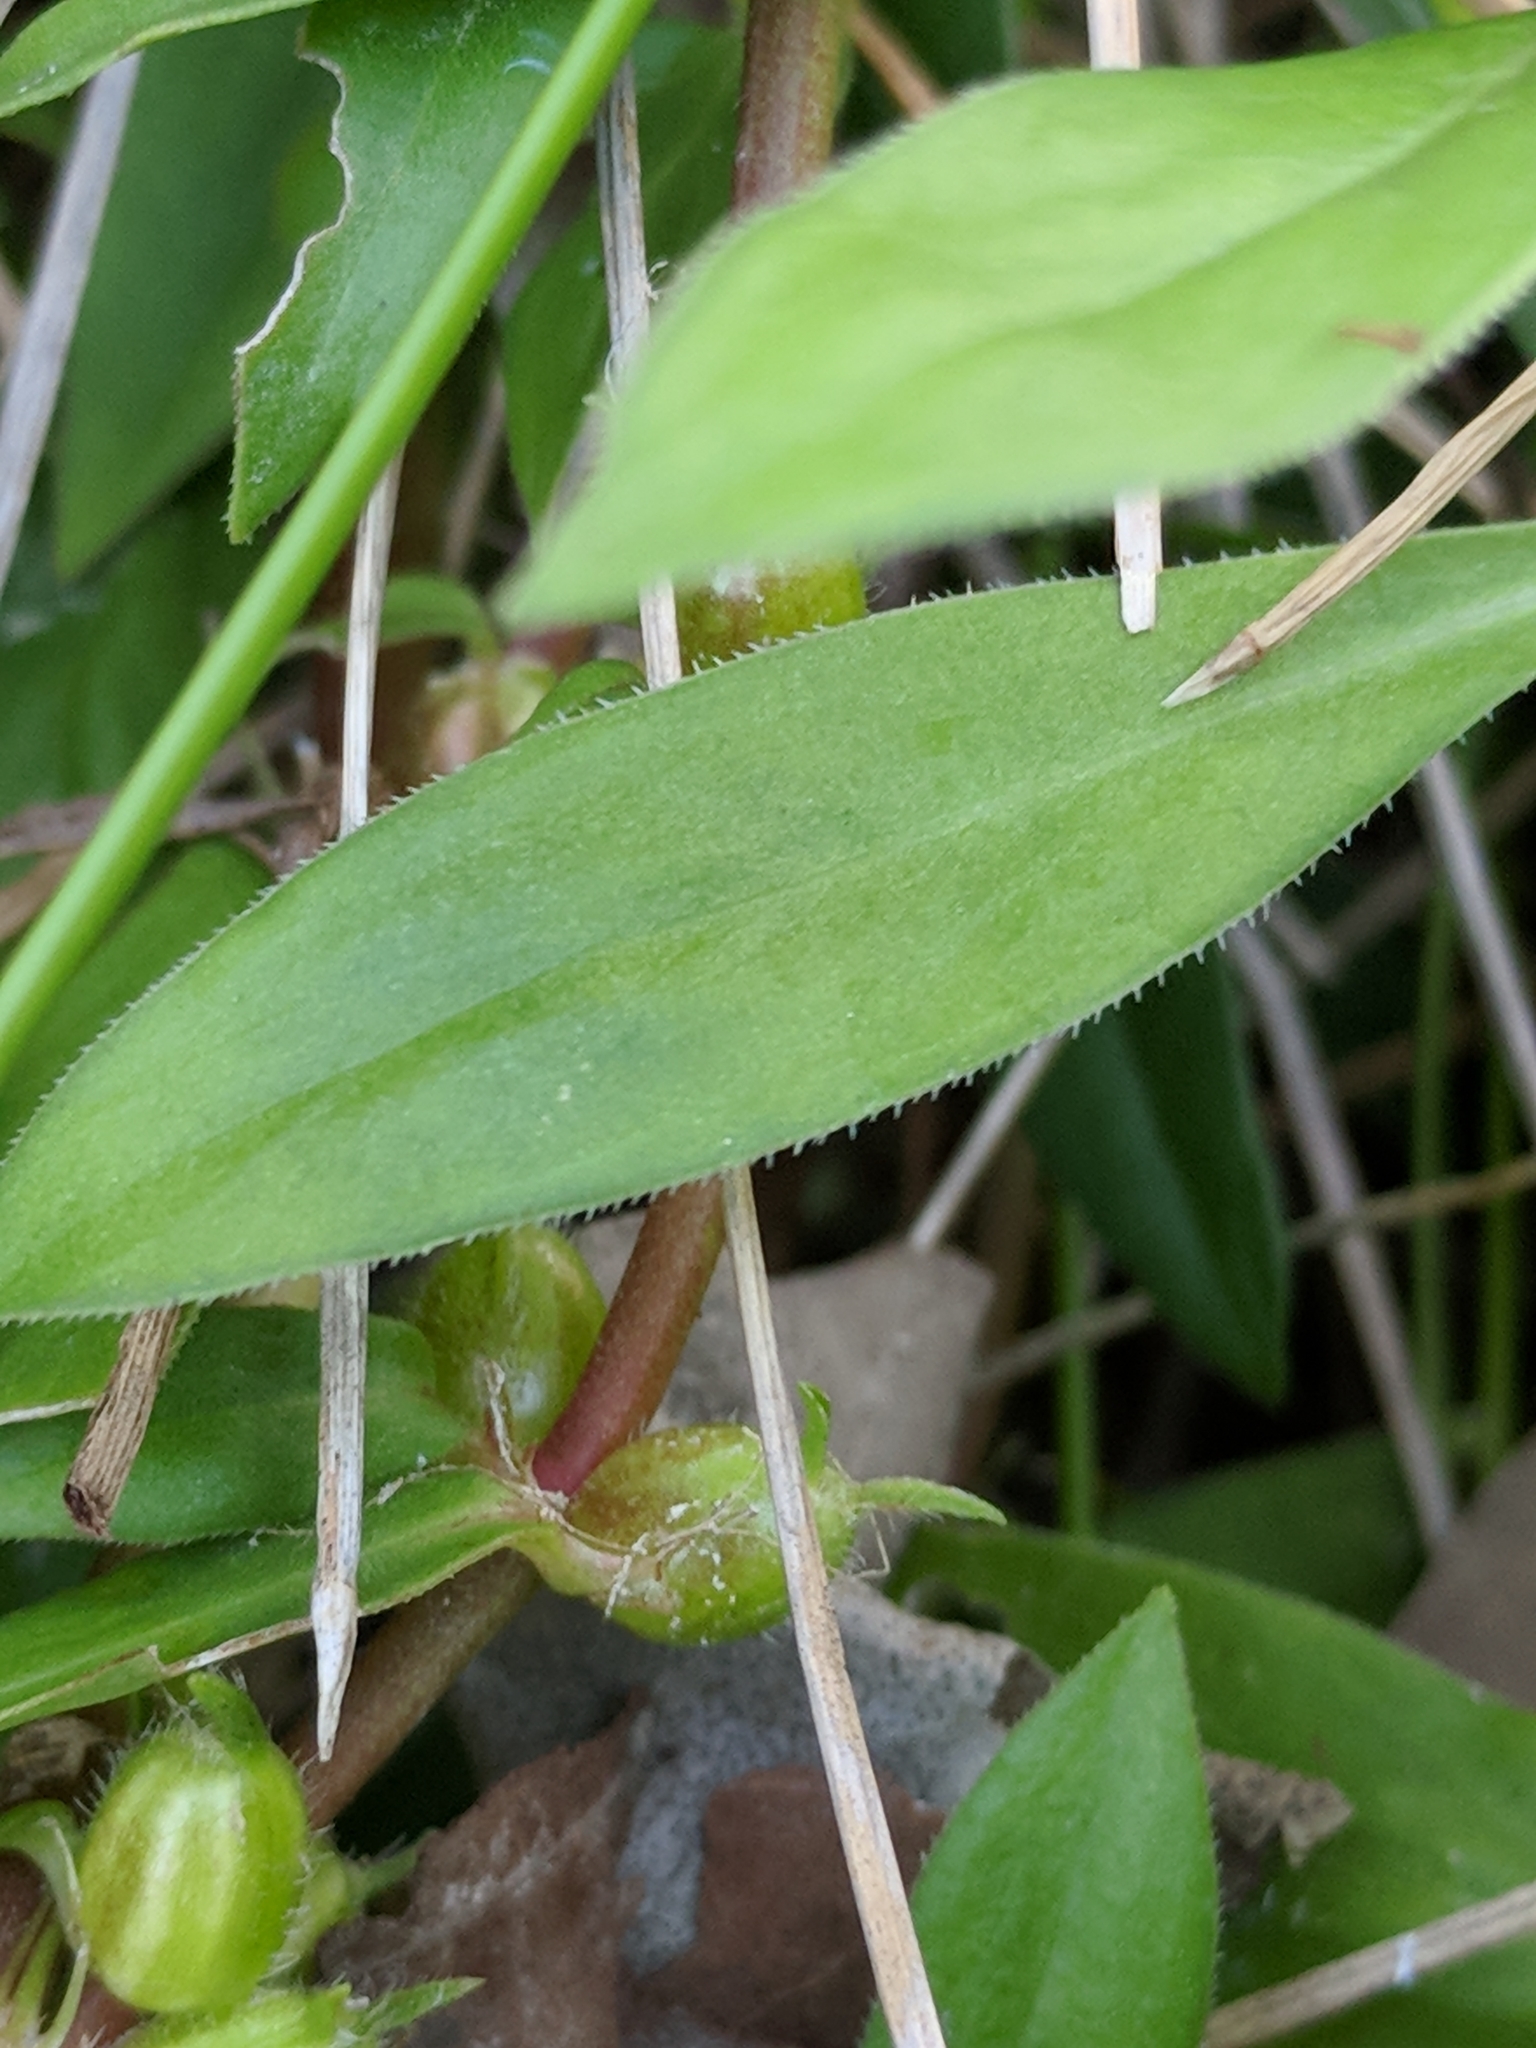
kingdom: Plantae
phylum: Tracheophyta
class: Magnoliopsida
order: Gentianales
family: Rubiaceae
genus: Diodia
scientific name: Diodia virginiana
